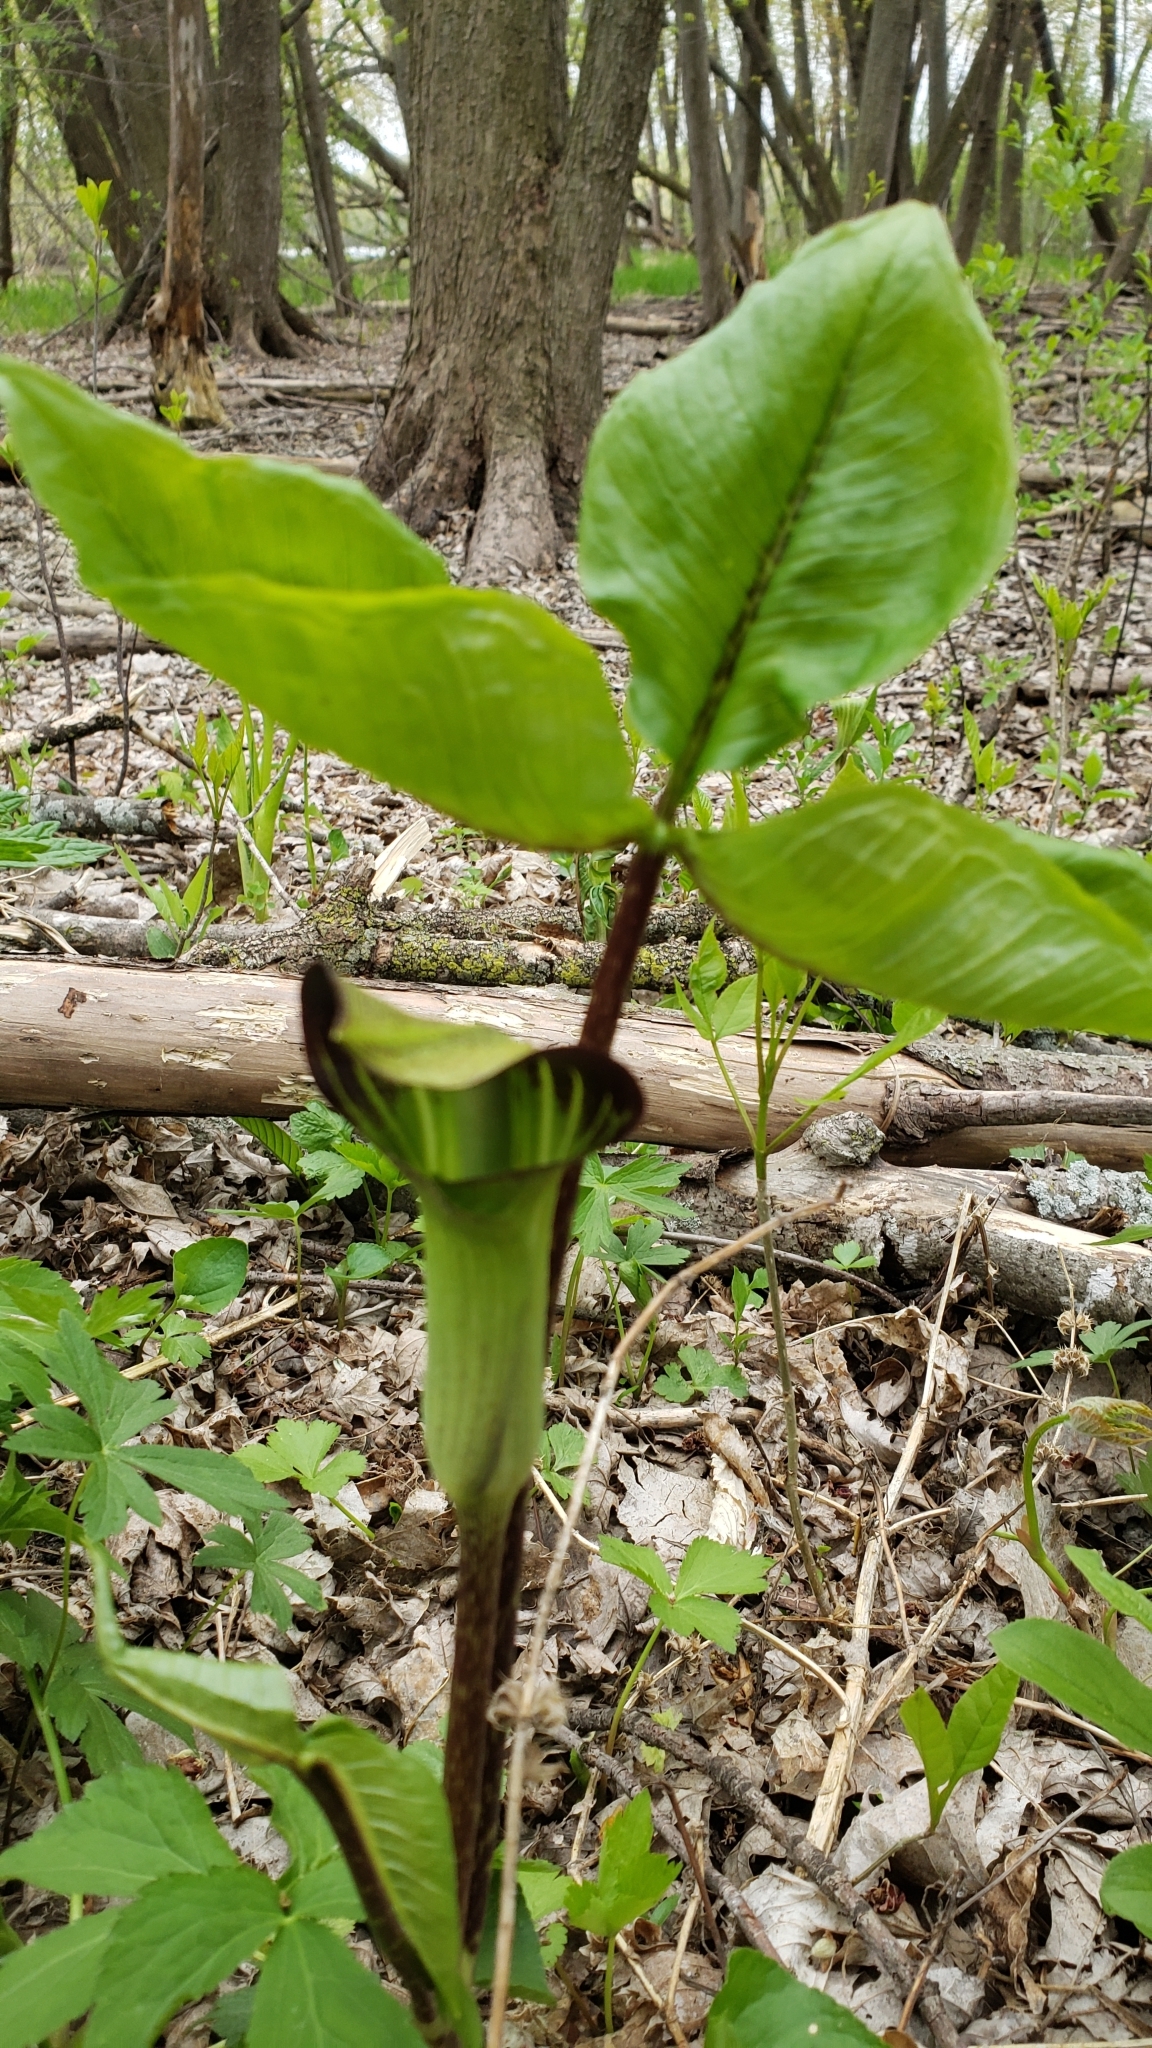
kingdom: Plantae
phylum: Tracheophyta
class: Liliopsida
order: Alismatales
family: Araceae
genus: Arisaema
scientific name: Arisaema triphyllum
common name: Jack-in-the-pulpit
